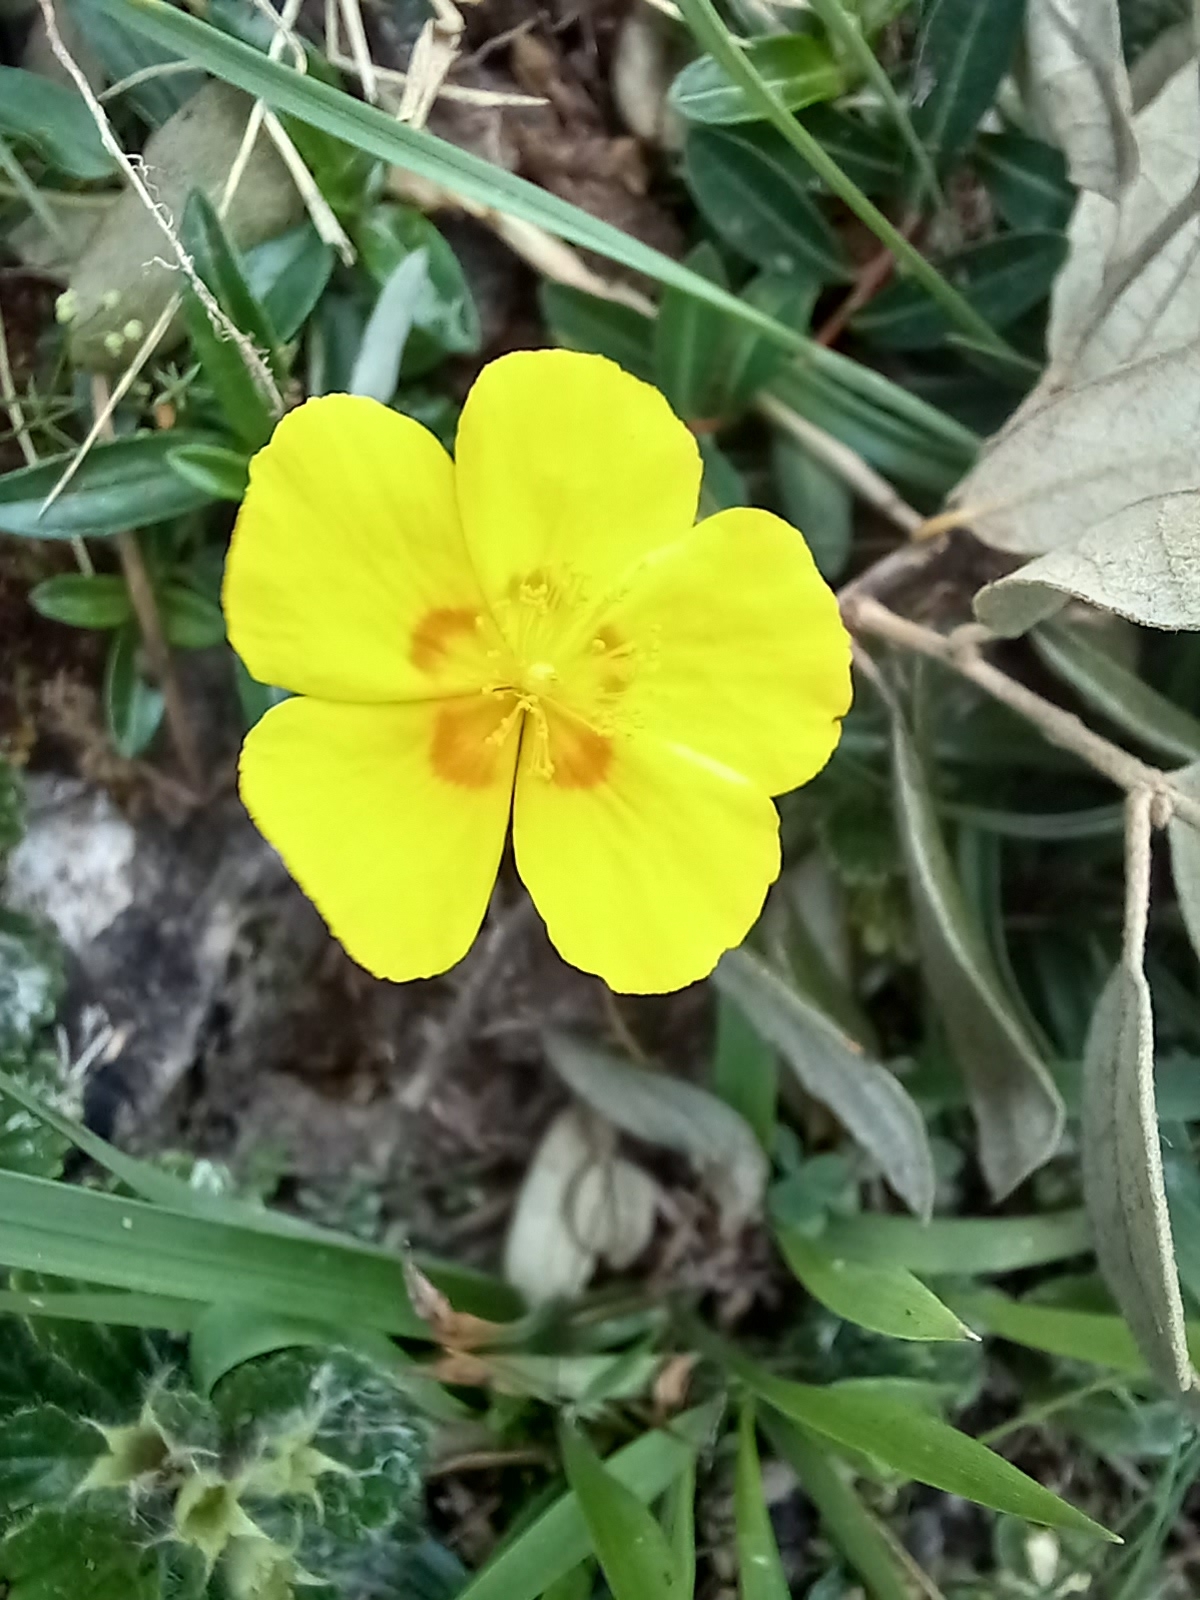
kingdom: Plantae
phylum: Tracheophyta
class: Magnoliopsida
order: Malvales
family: Cistaceae
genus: Helianthemum
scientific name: Helianthemum nummularium
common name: Common rock-rose
